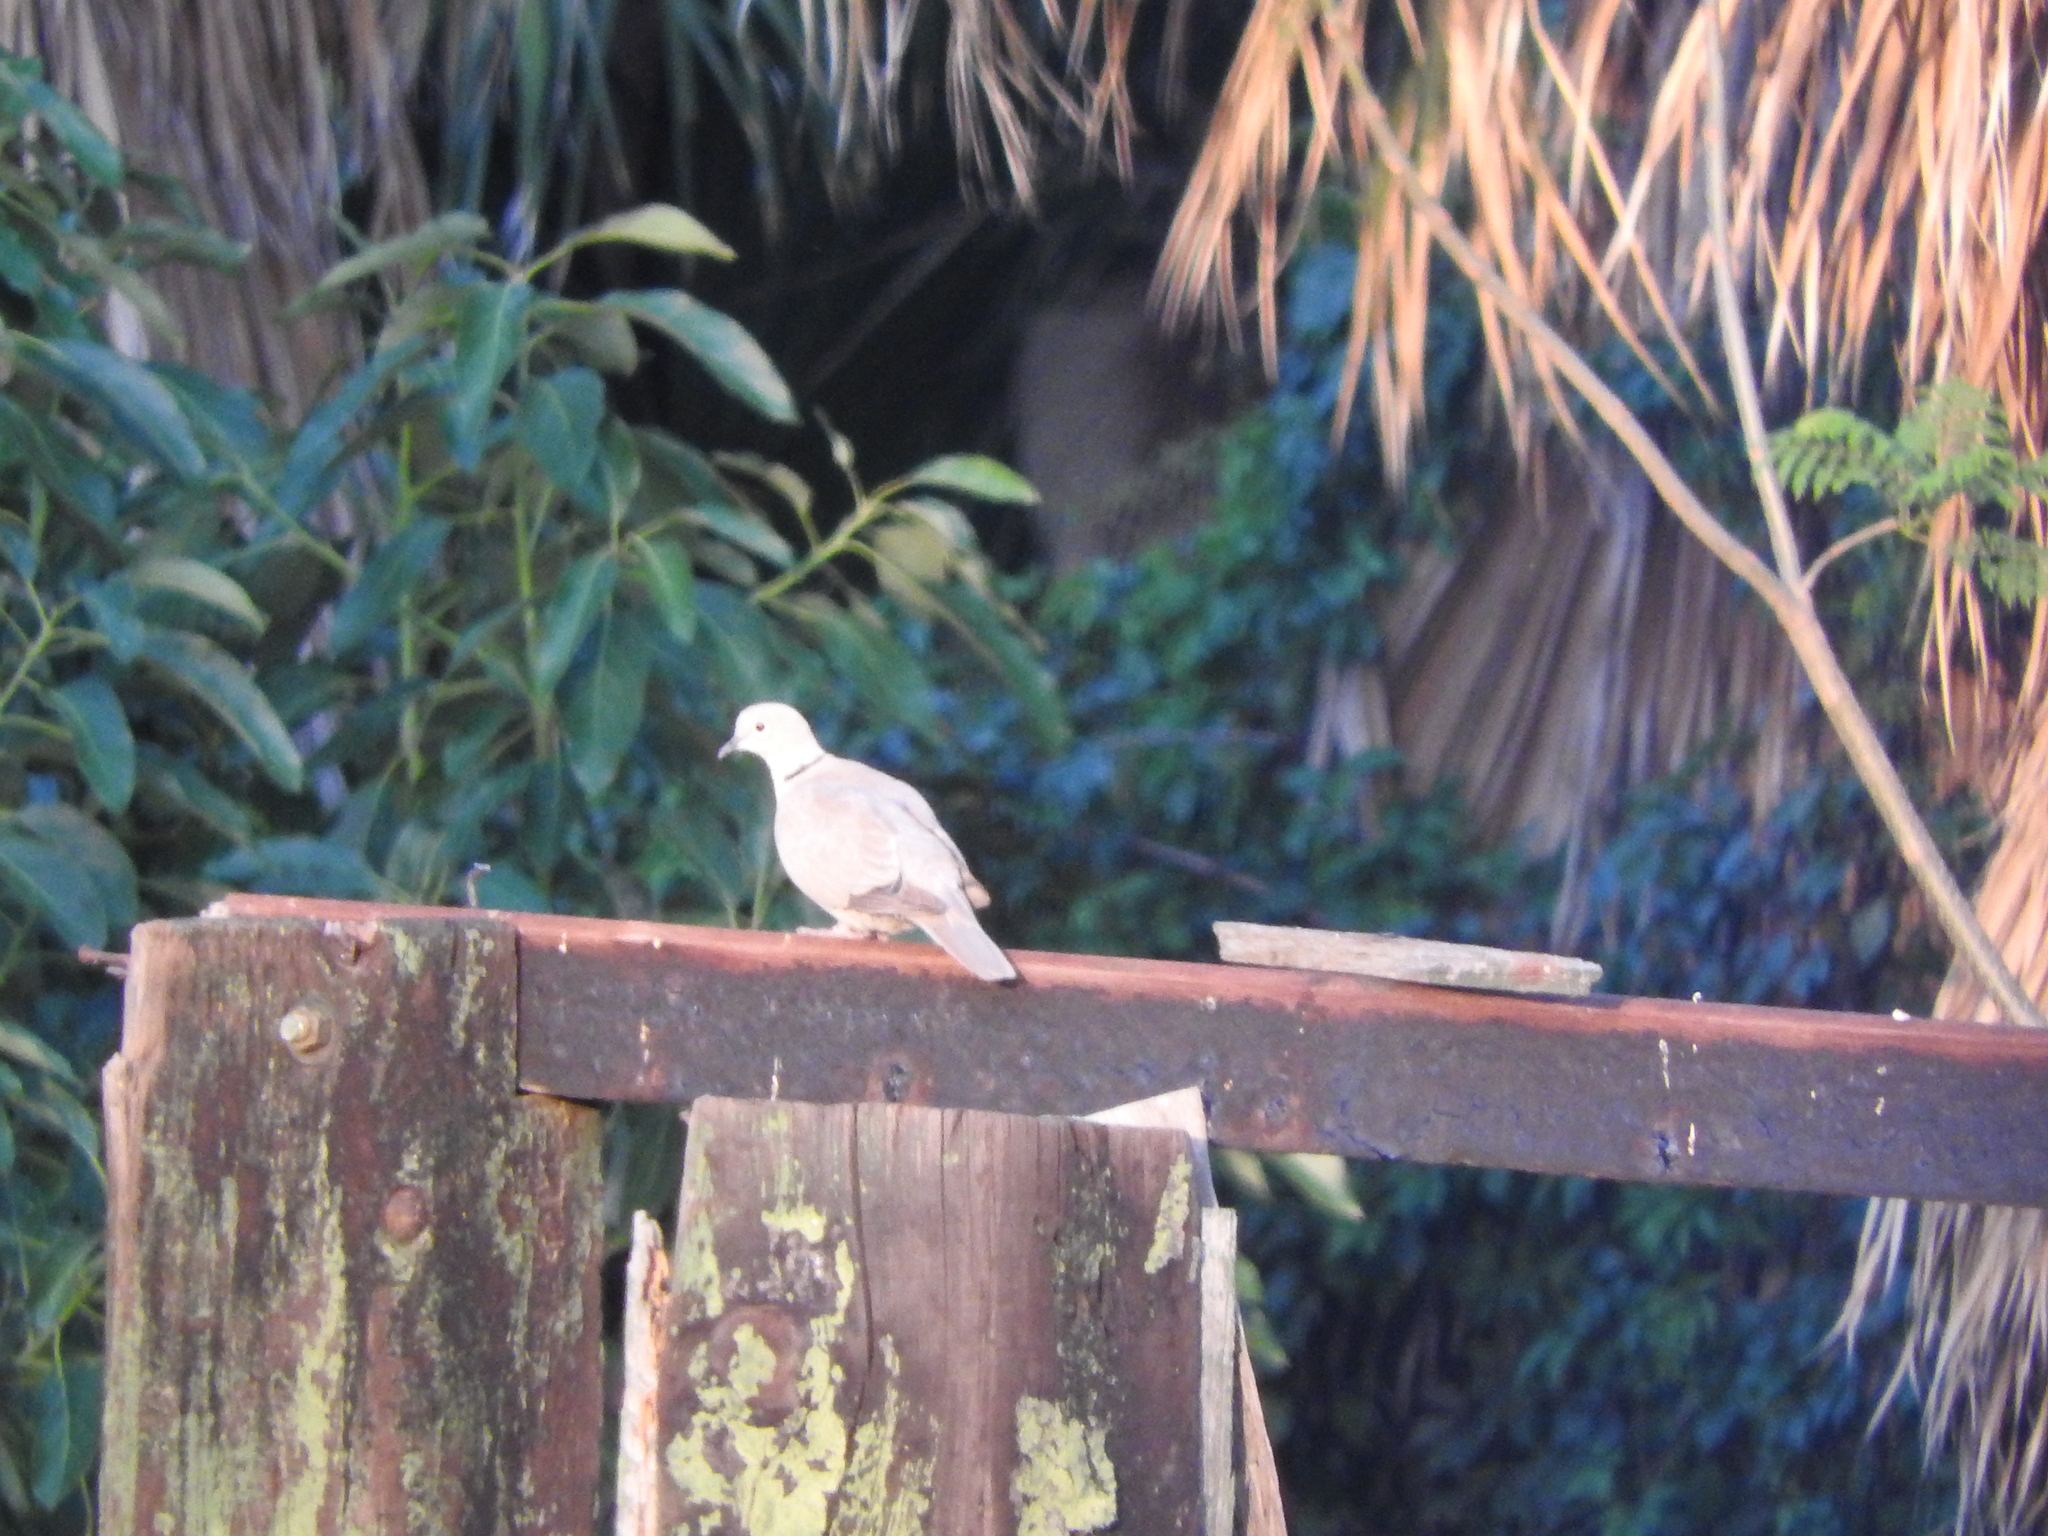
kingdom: Animalia
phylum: Chordata
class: Aves
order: Columbiformes
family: Columbidae
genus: Streptopelia
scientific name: Streptopelia decaocto
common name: Eurasian collared dove
